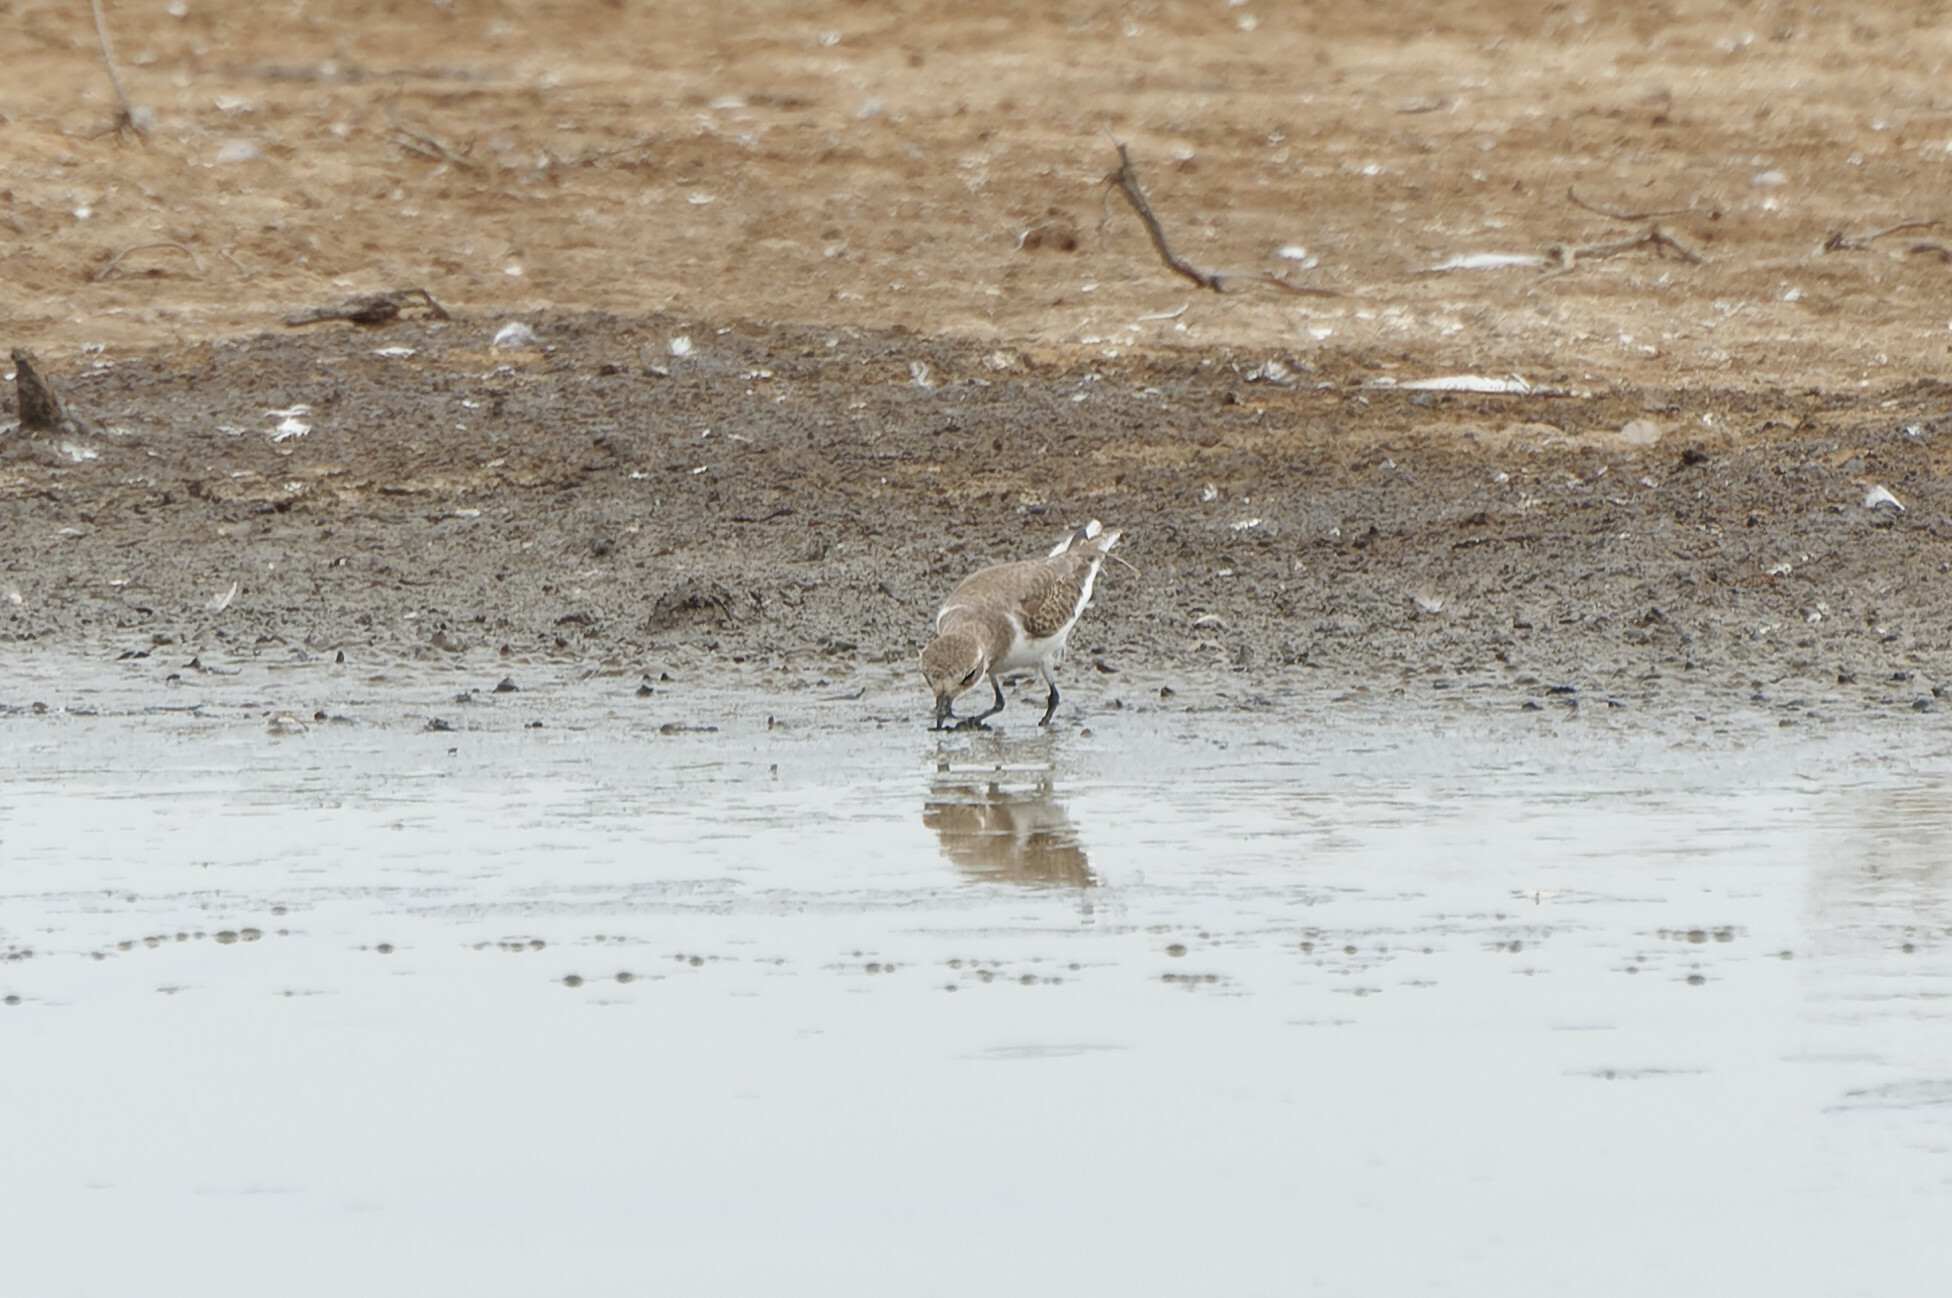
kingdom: Animalia
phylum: Chordata
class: Aves
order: Charadriiformes
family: Charadriidae
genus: Anarhynchus
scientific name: Anarhynchus
